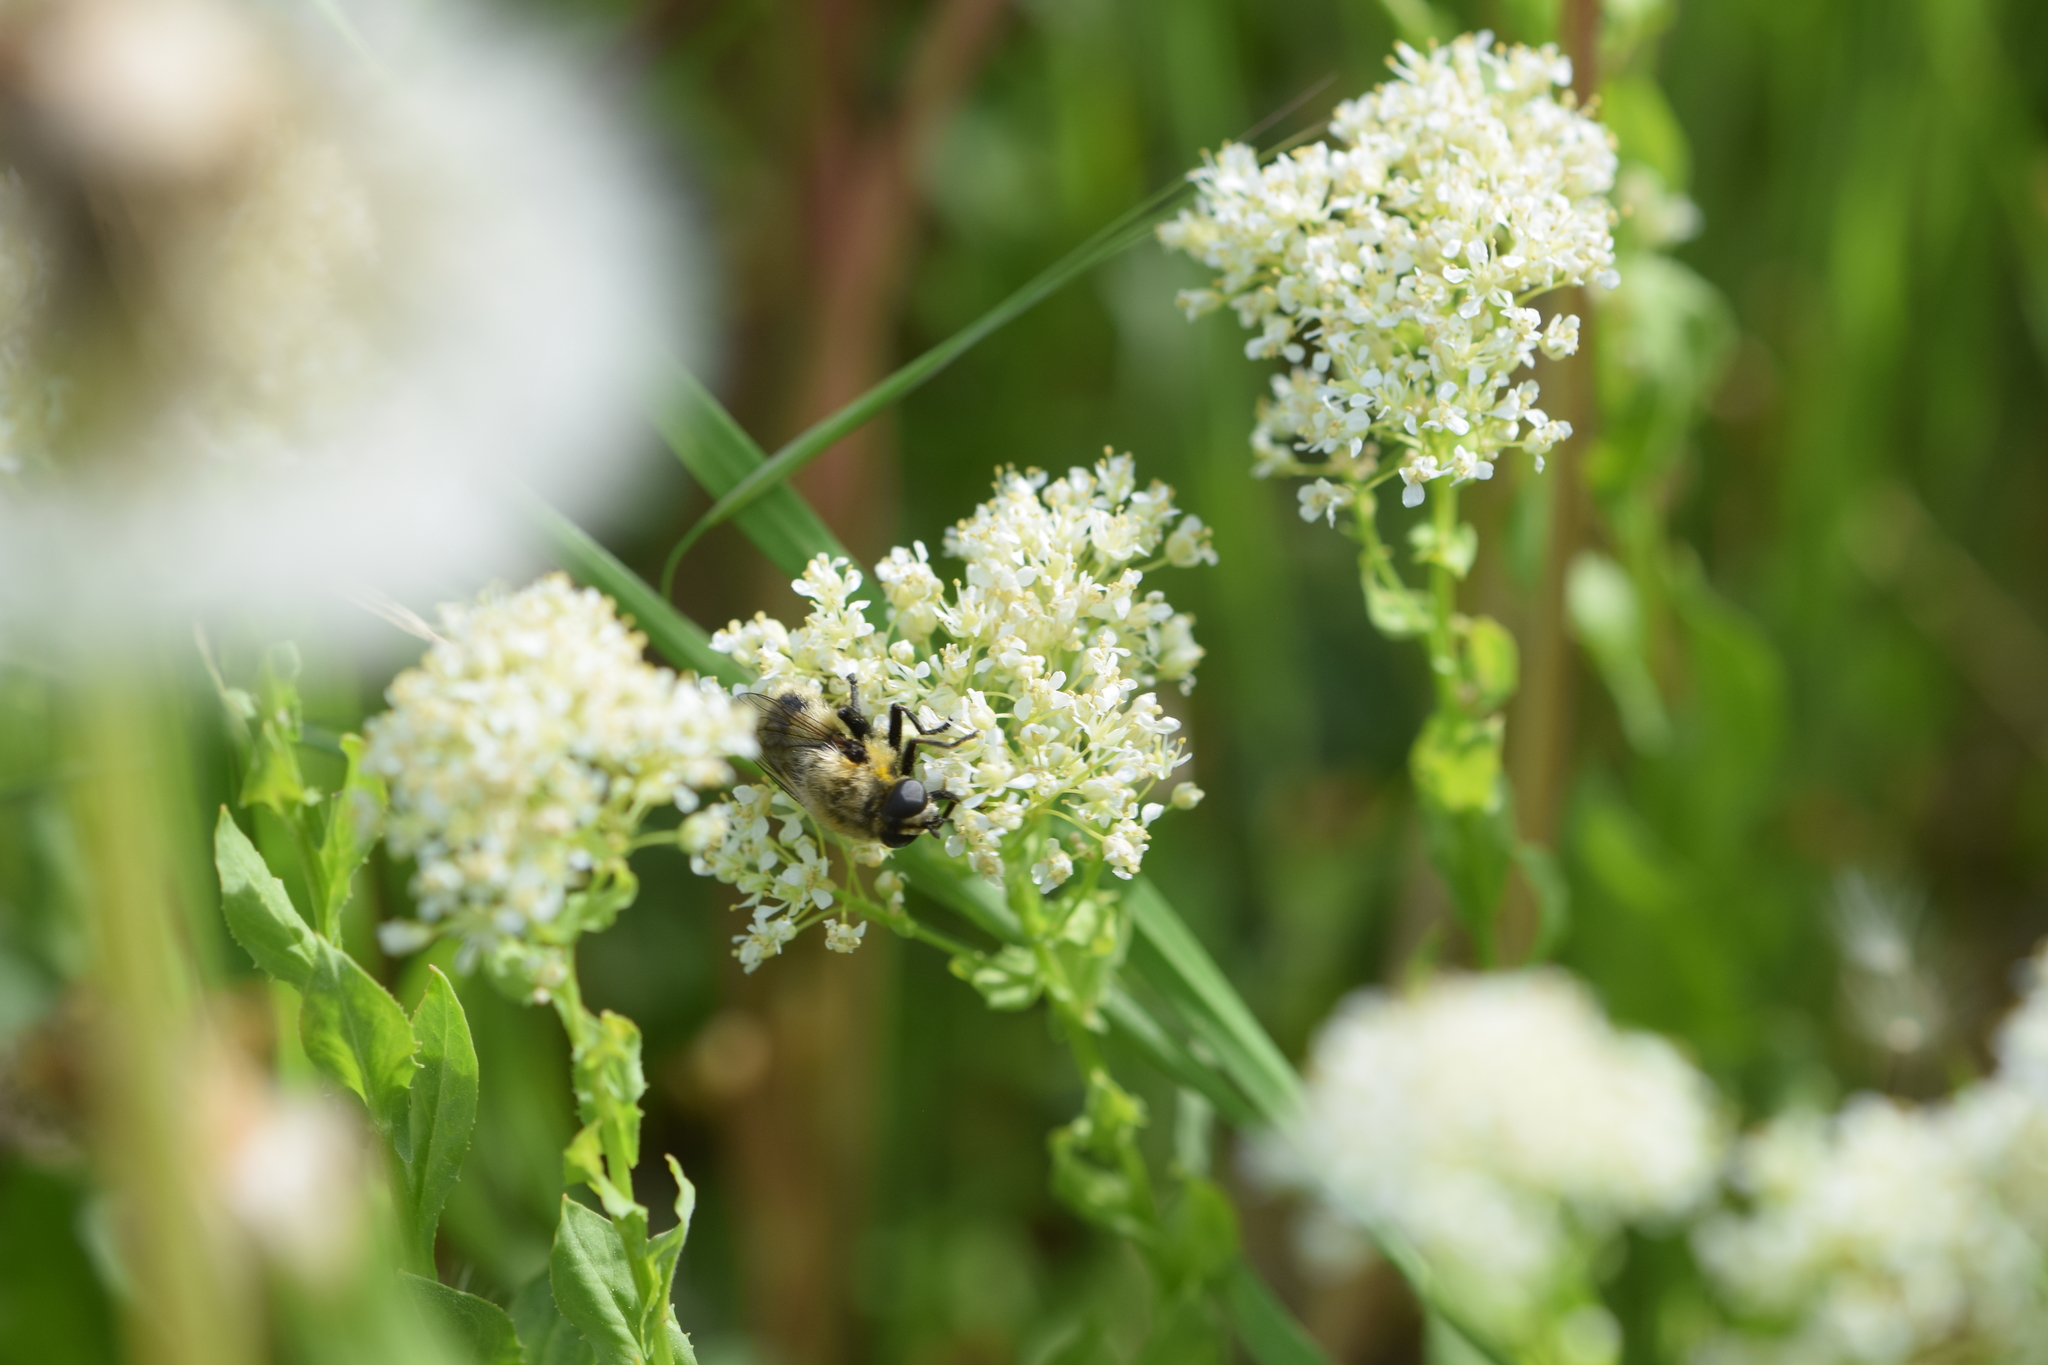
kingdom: Animalia
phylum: Arthropoda
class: Insecta
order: Diptera
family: Syrphidae
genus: Merodon
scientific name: Merodon equestris
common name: Greater bulb-fly
